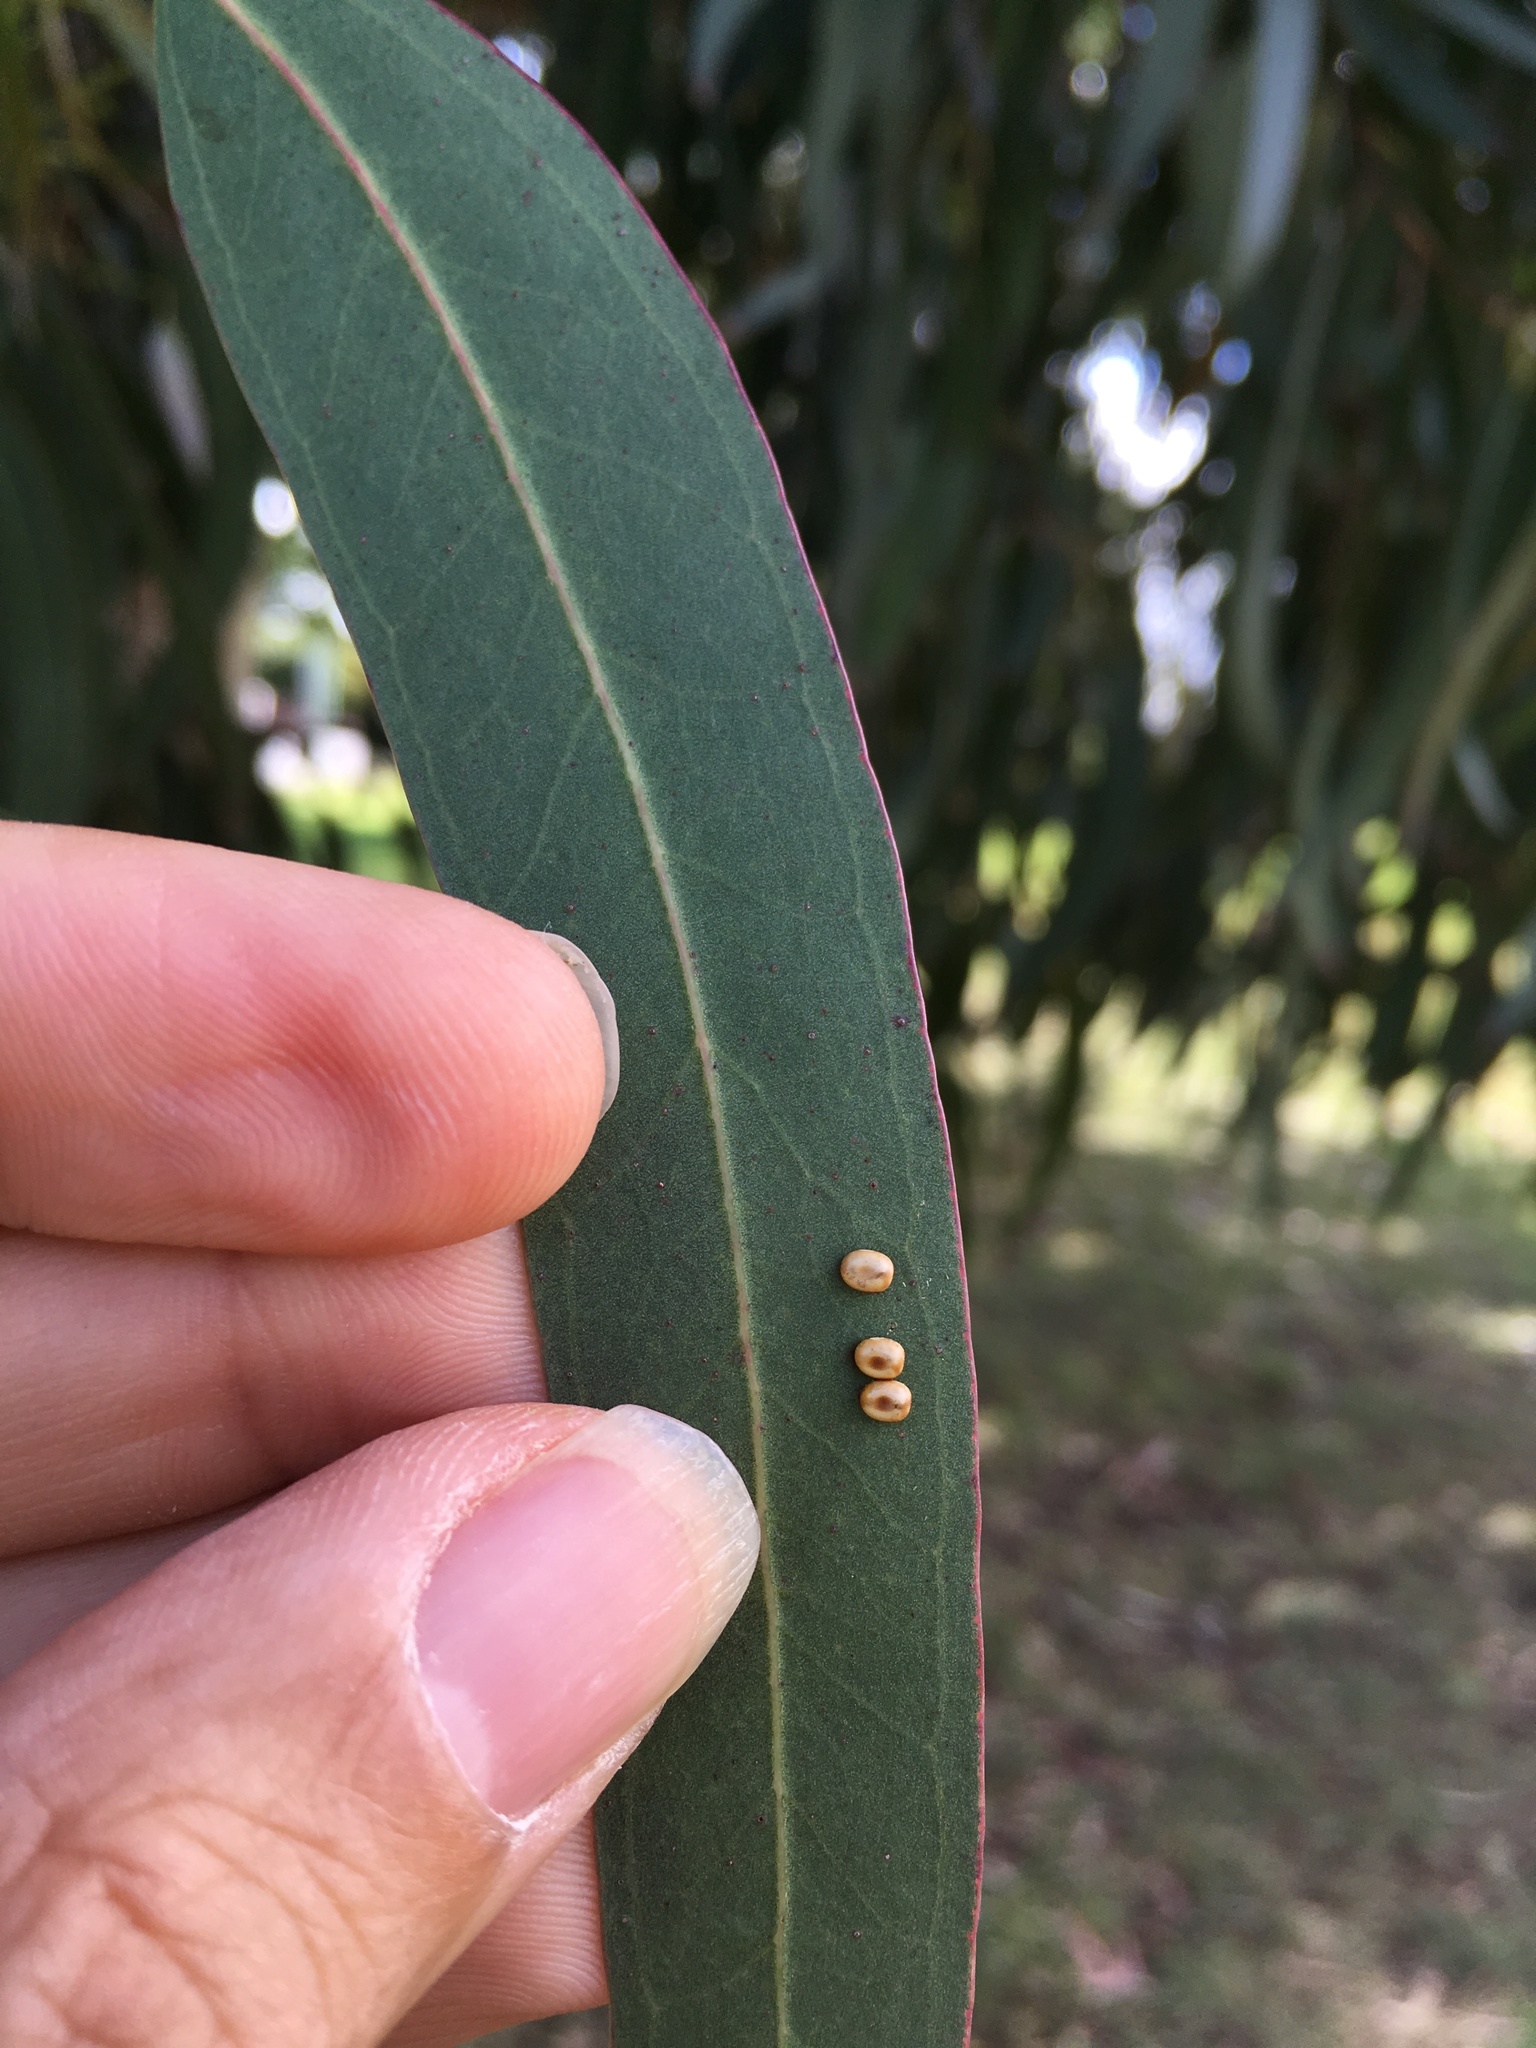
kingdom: Animalia
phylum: Arthropoda
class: Insecta
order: Lepidoptera
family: Saturniidae
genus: Opodiphthera
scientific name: Opodiphthera
